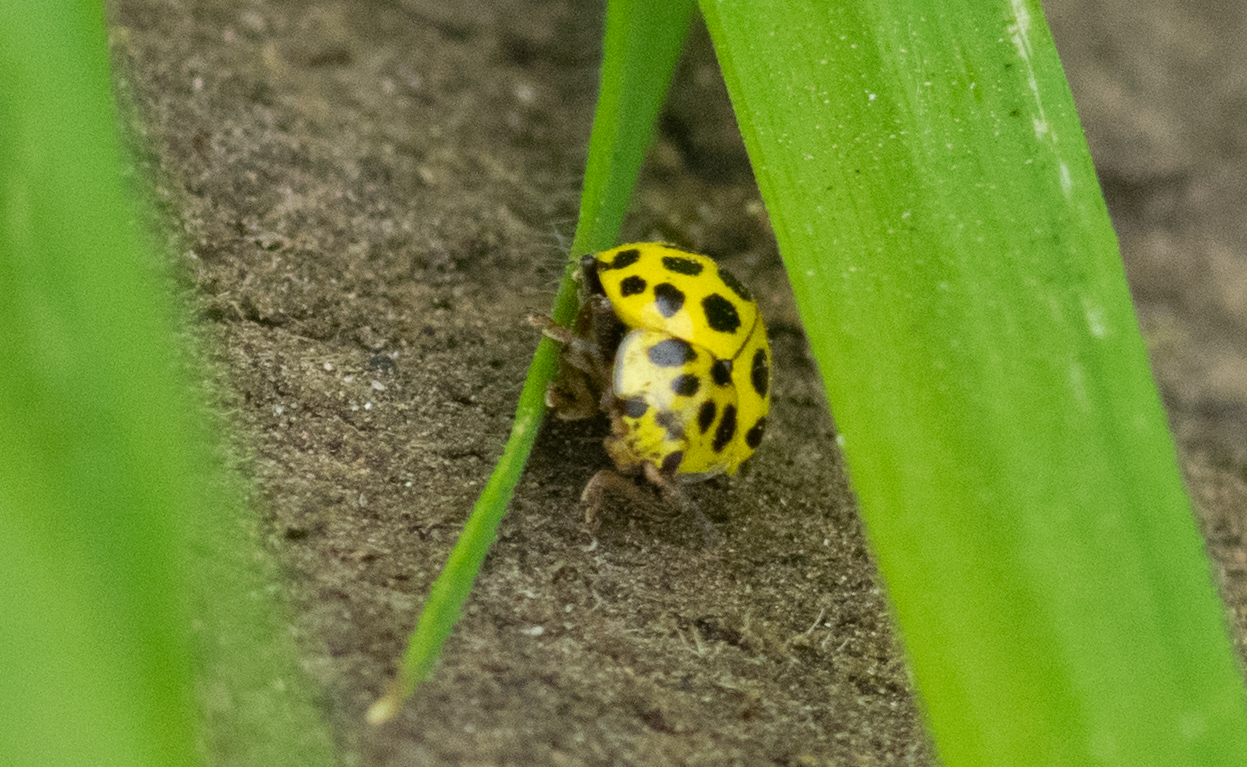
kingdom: Animalia
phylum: Arthropoda
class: Insecta
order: Coleoptera
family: Coccinellidae
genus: Psyllobora
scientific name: Psyllobora vigintiduopunctata
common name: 22-spot ladybird
